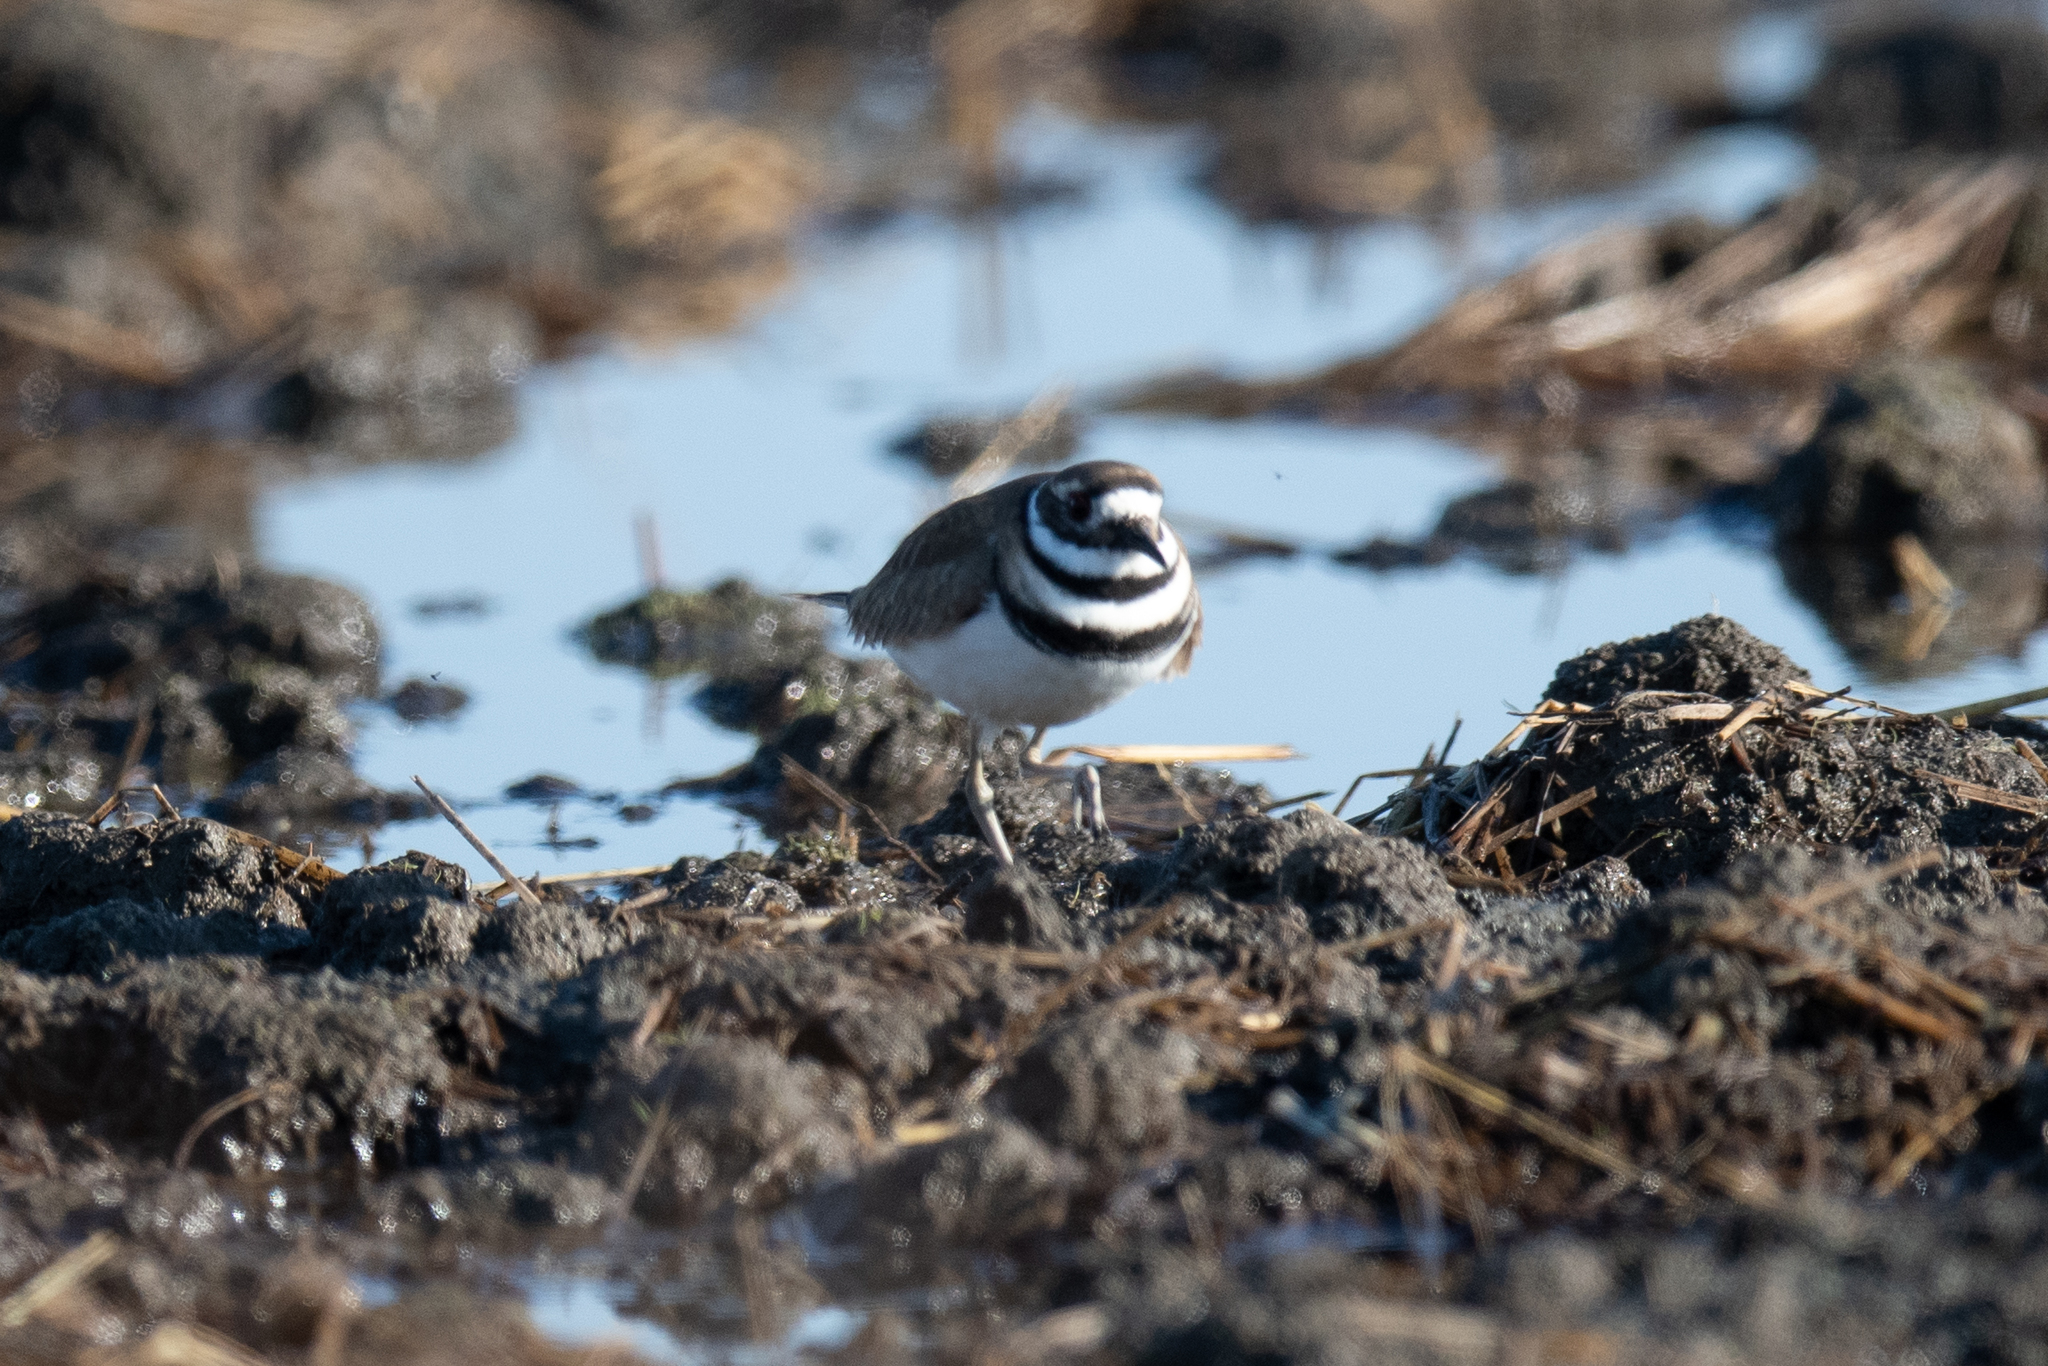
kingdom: Animalia
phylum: Chordata
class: Aves
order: Charadriiformes
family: Charadriidae
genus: Charadrius
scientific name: Charadrius vociferus
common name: Killdeer
